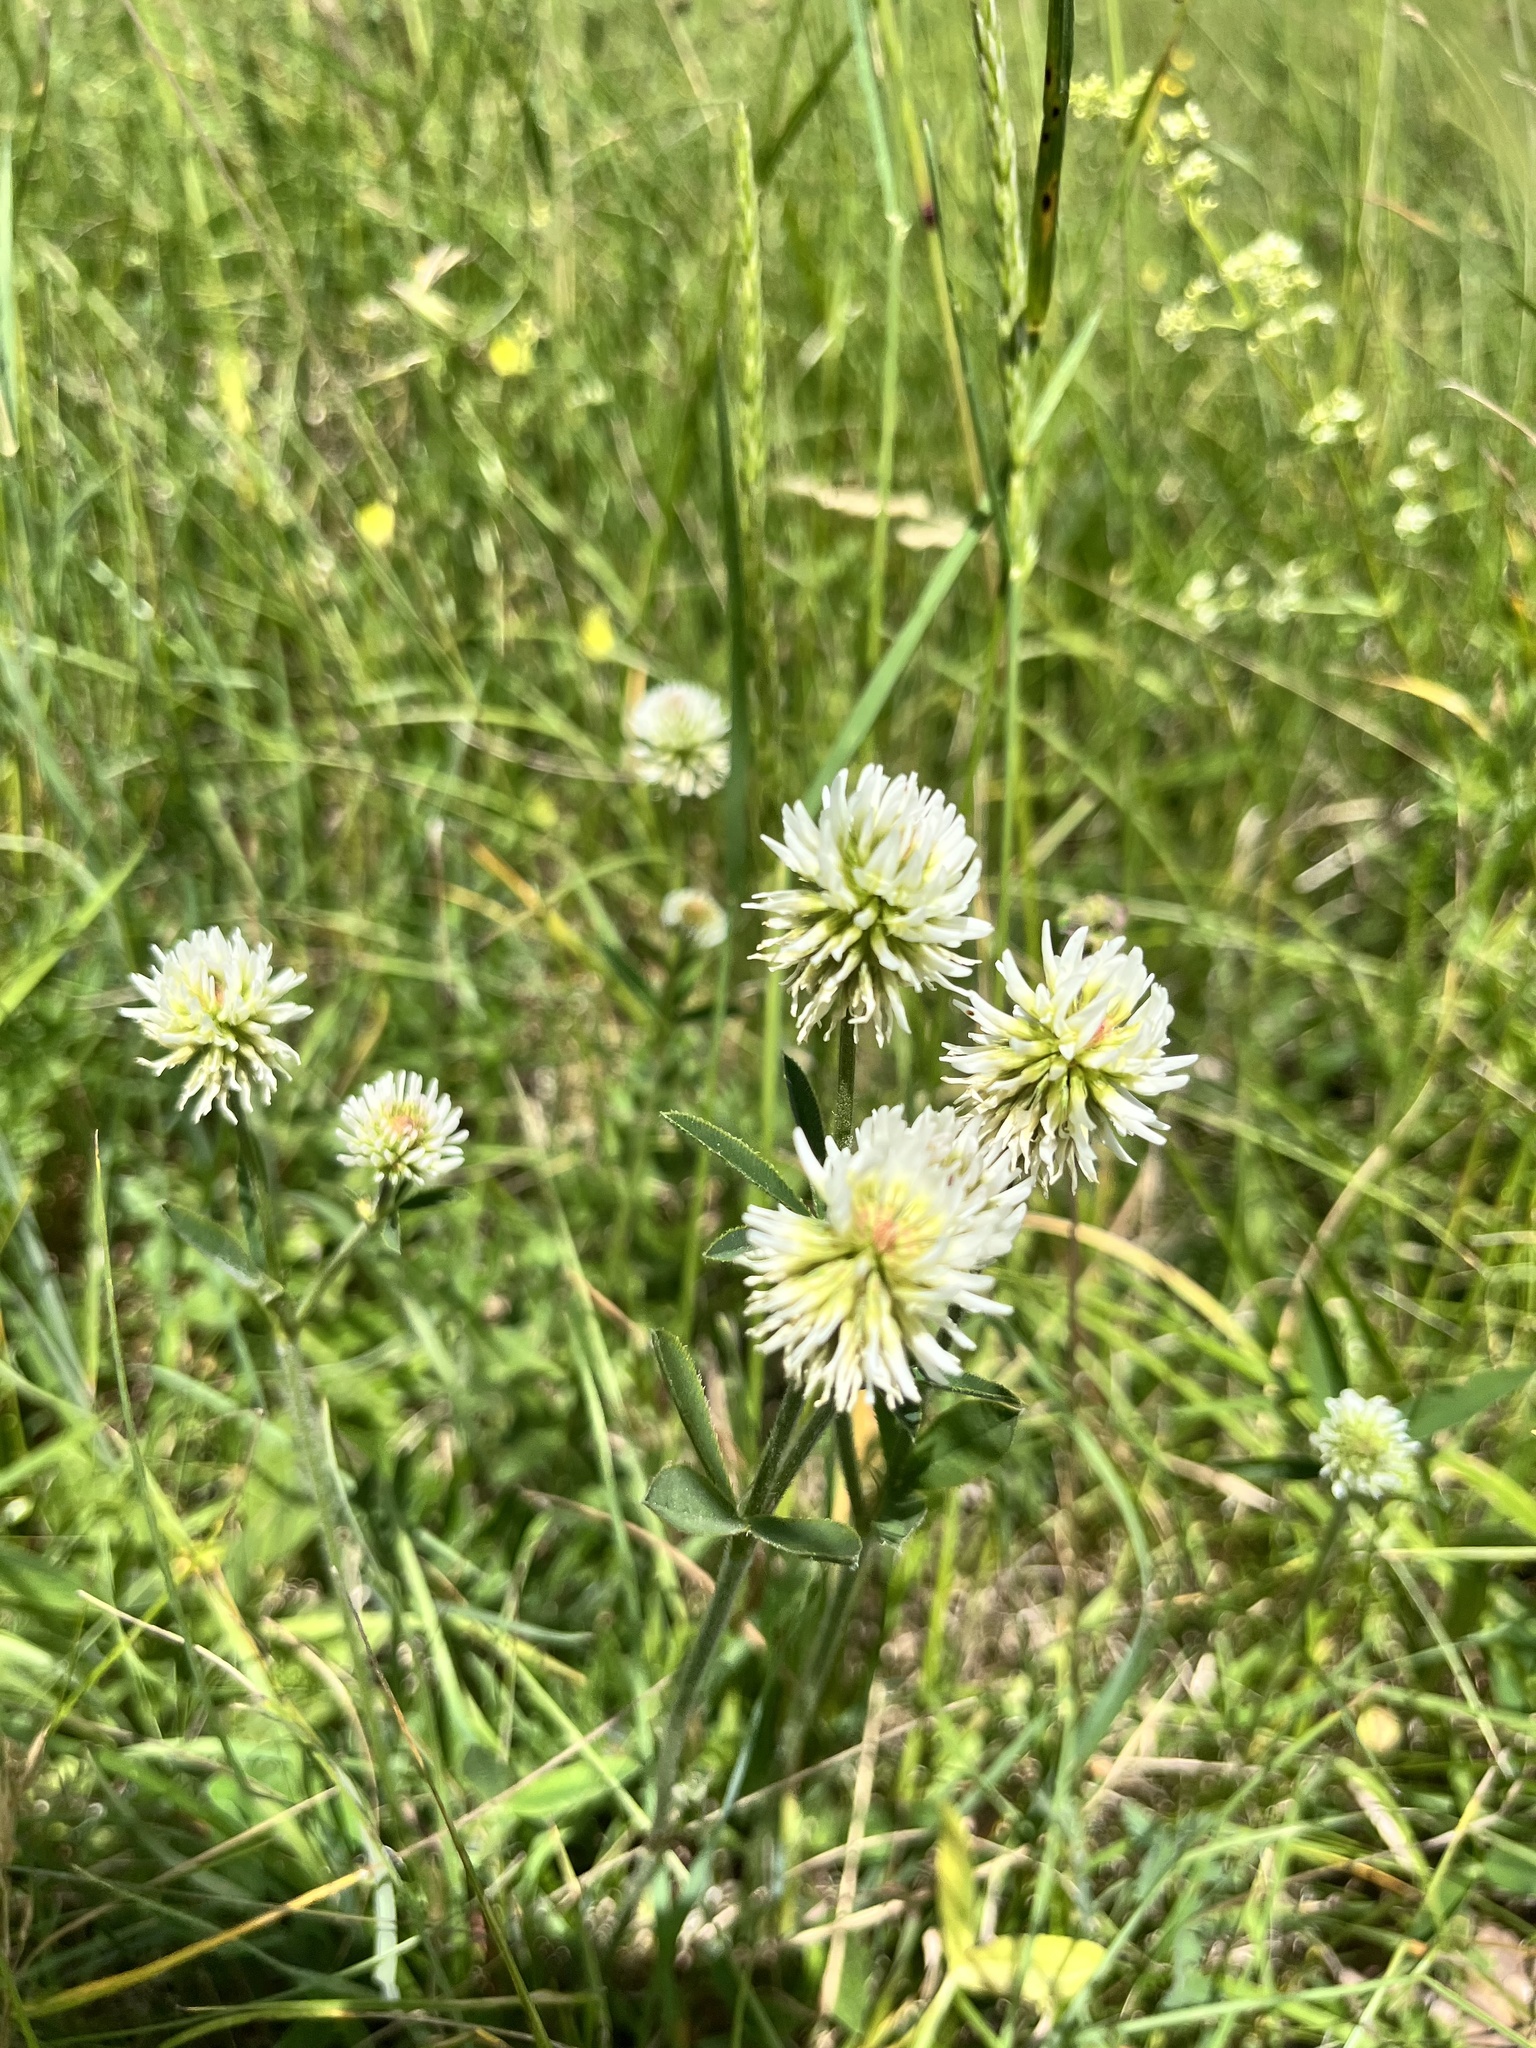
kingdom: Plantae
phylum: Tracheophyta
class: Magnoliopsida
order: Fabales
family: Fabaceae
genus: Trifolium
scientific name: Trifolium montanum
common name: Mountain clover
